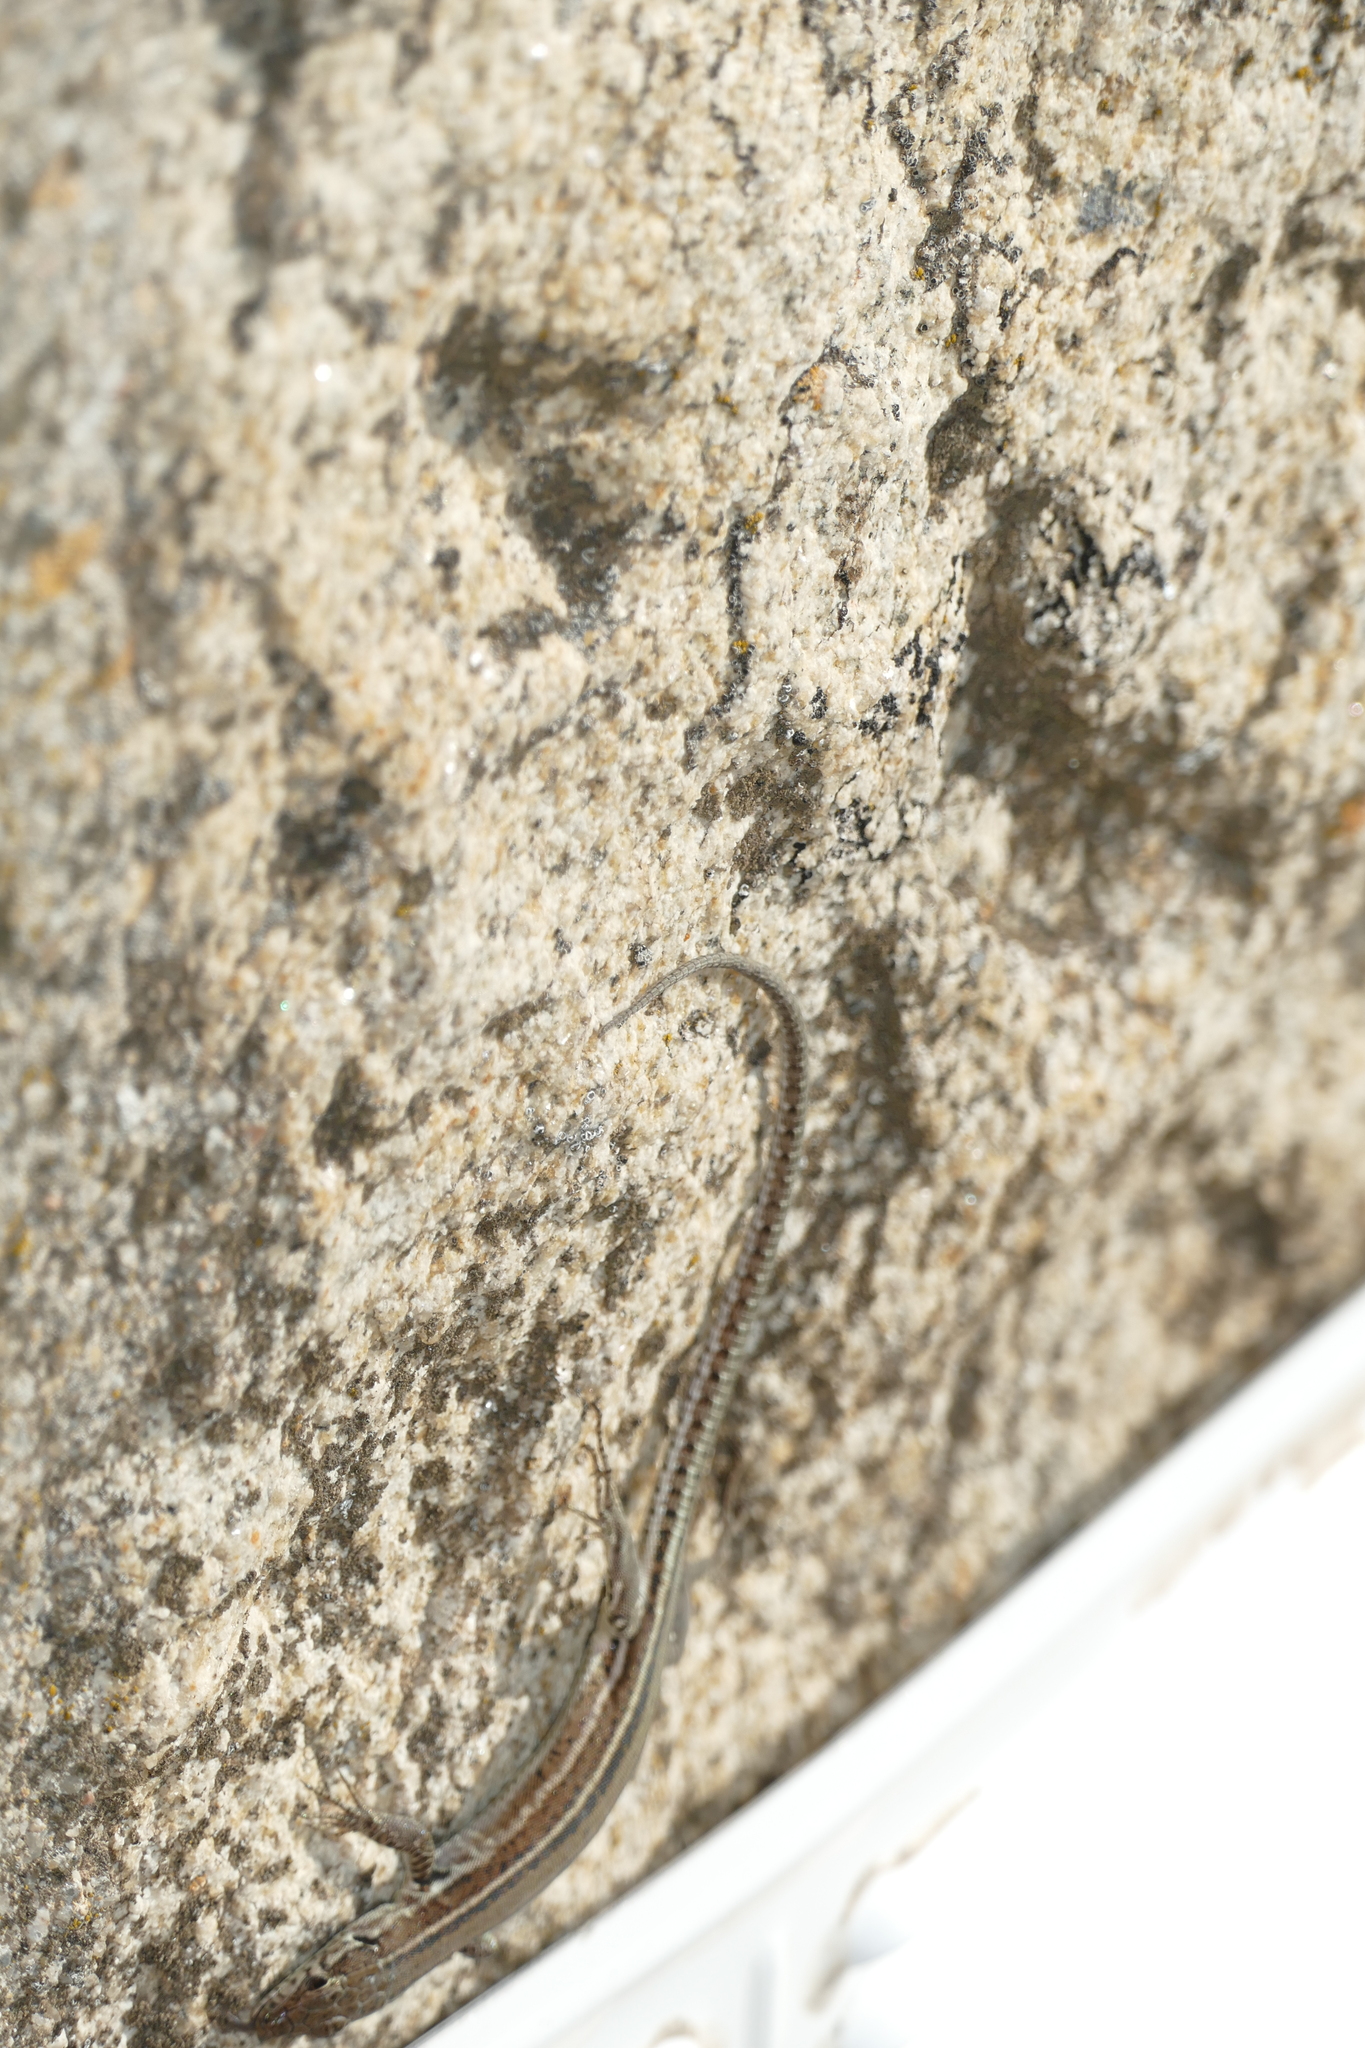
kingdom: Animalia
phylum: Chordata
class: Squamata
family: Lacertidae
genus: Podarcis
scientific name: Podarcis guadarramae
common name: Guadarrama wall lizard
